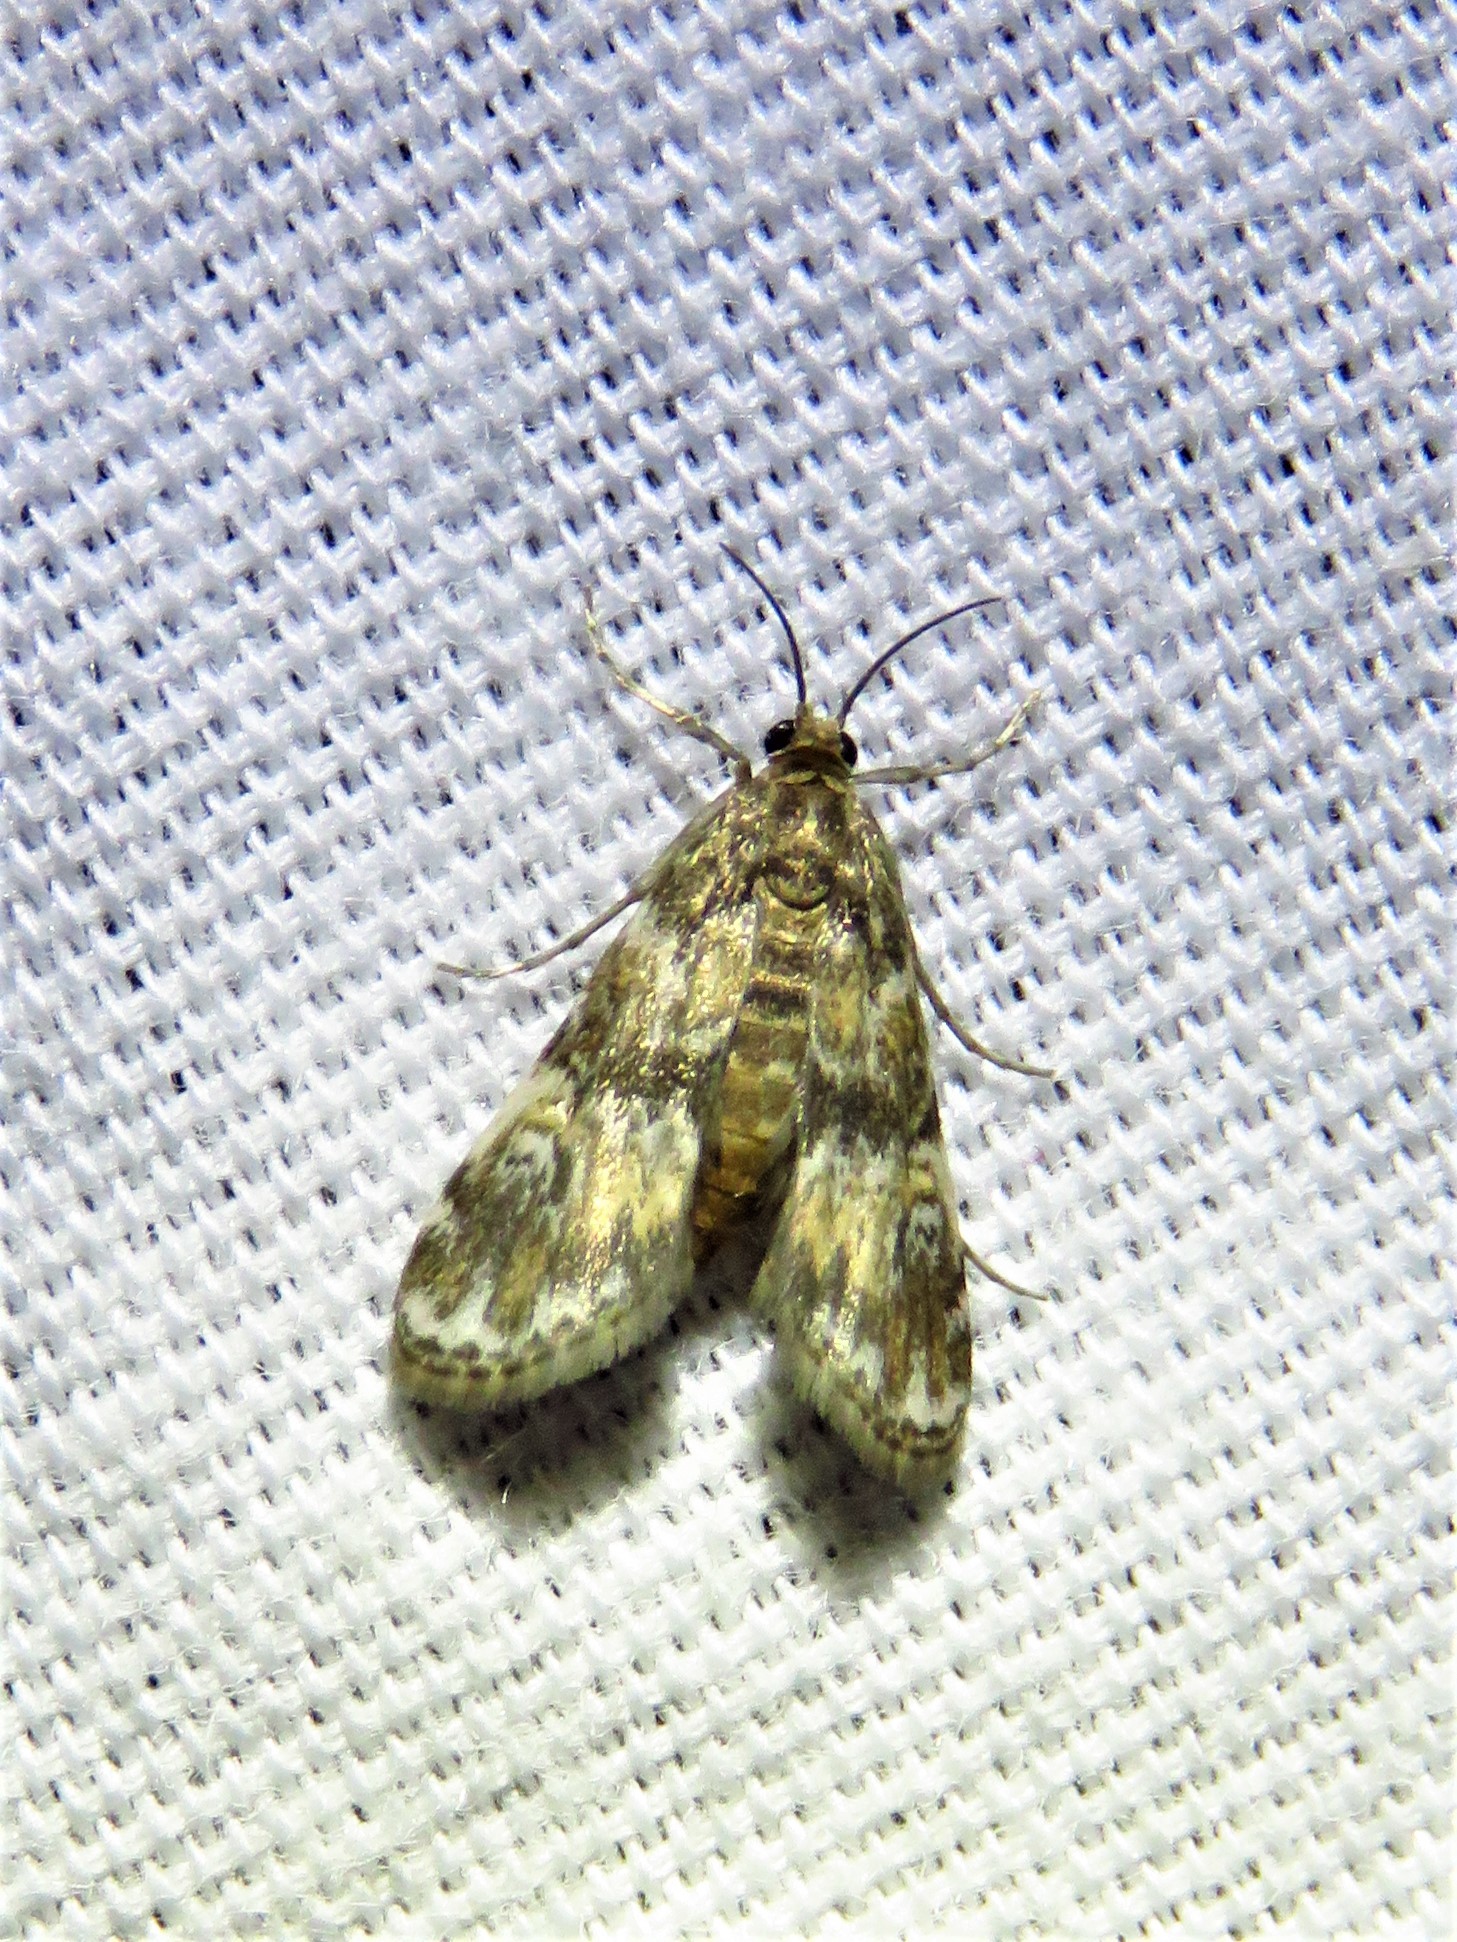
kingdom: Animalia
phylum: Arthropoda
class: Insecta
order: Lepidoptera
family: Crambidae
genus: Elophila
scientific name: Elophila obliteralis
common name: Waterlily leafcutter moth
